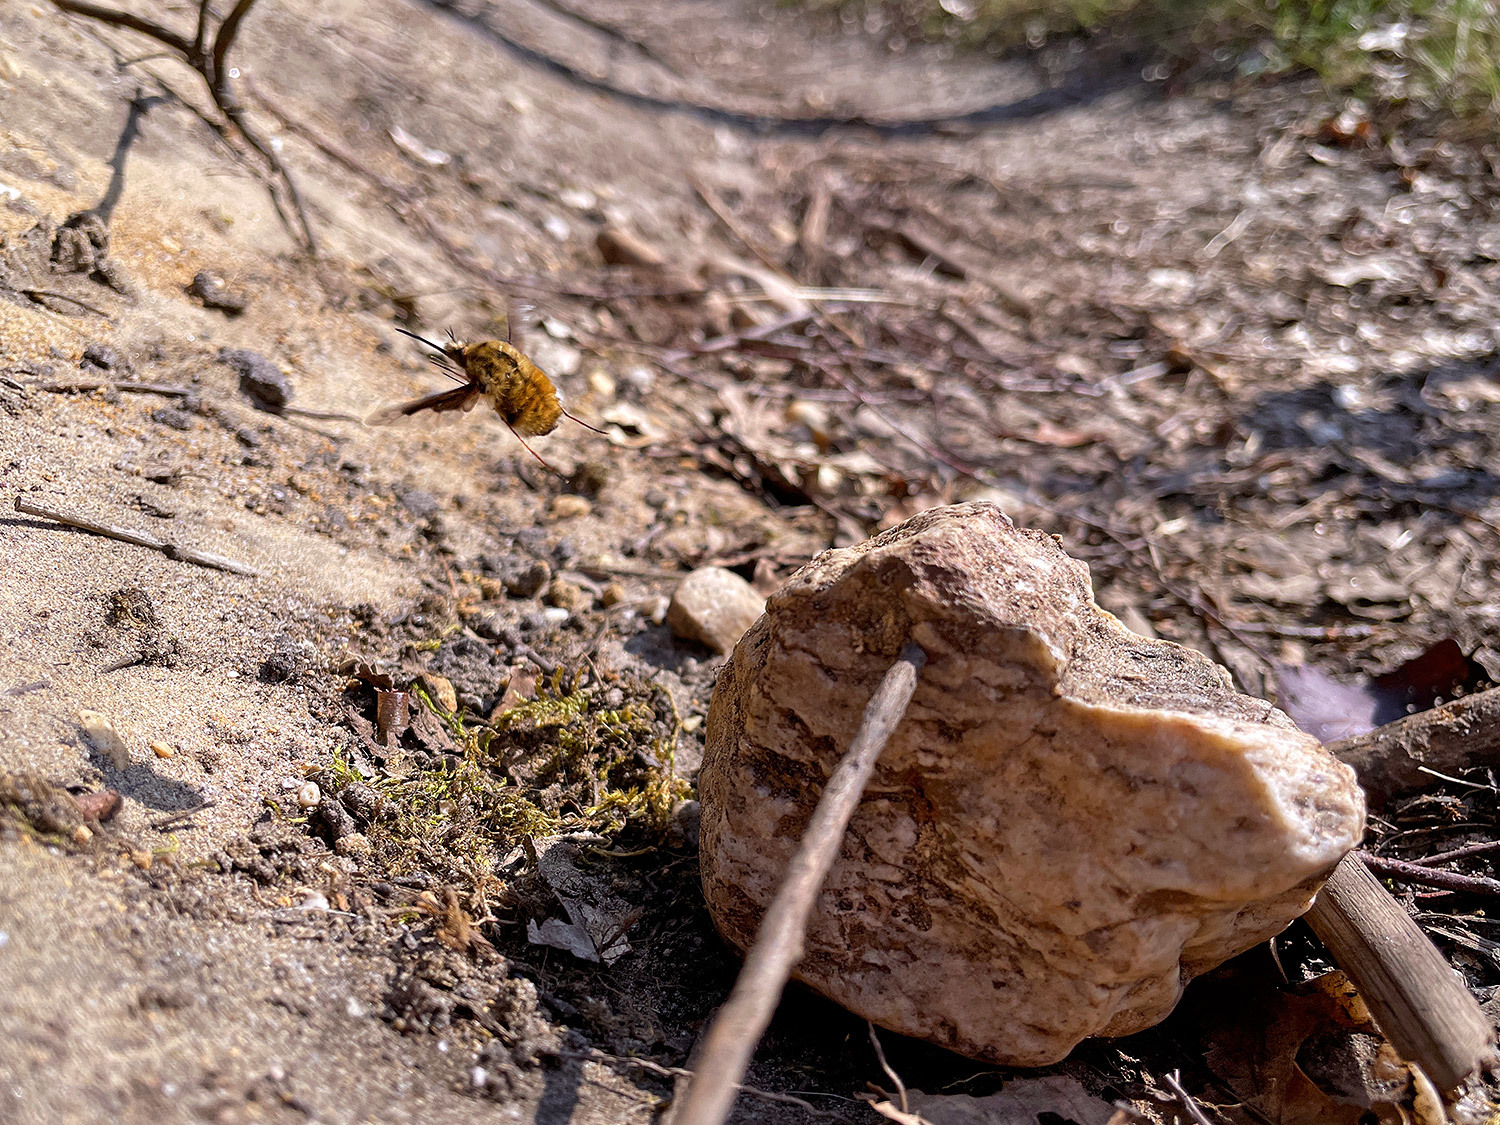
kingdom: Animalia
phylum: Arthropoda
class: Insecta
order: Diptera
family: Bombyliidae
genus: Bombylius
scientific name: Bombylius major
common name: Bee fly
